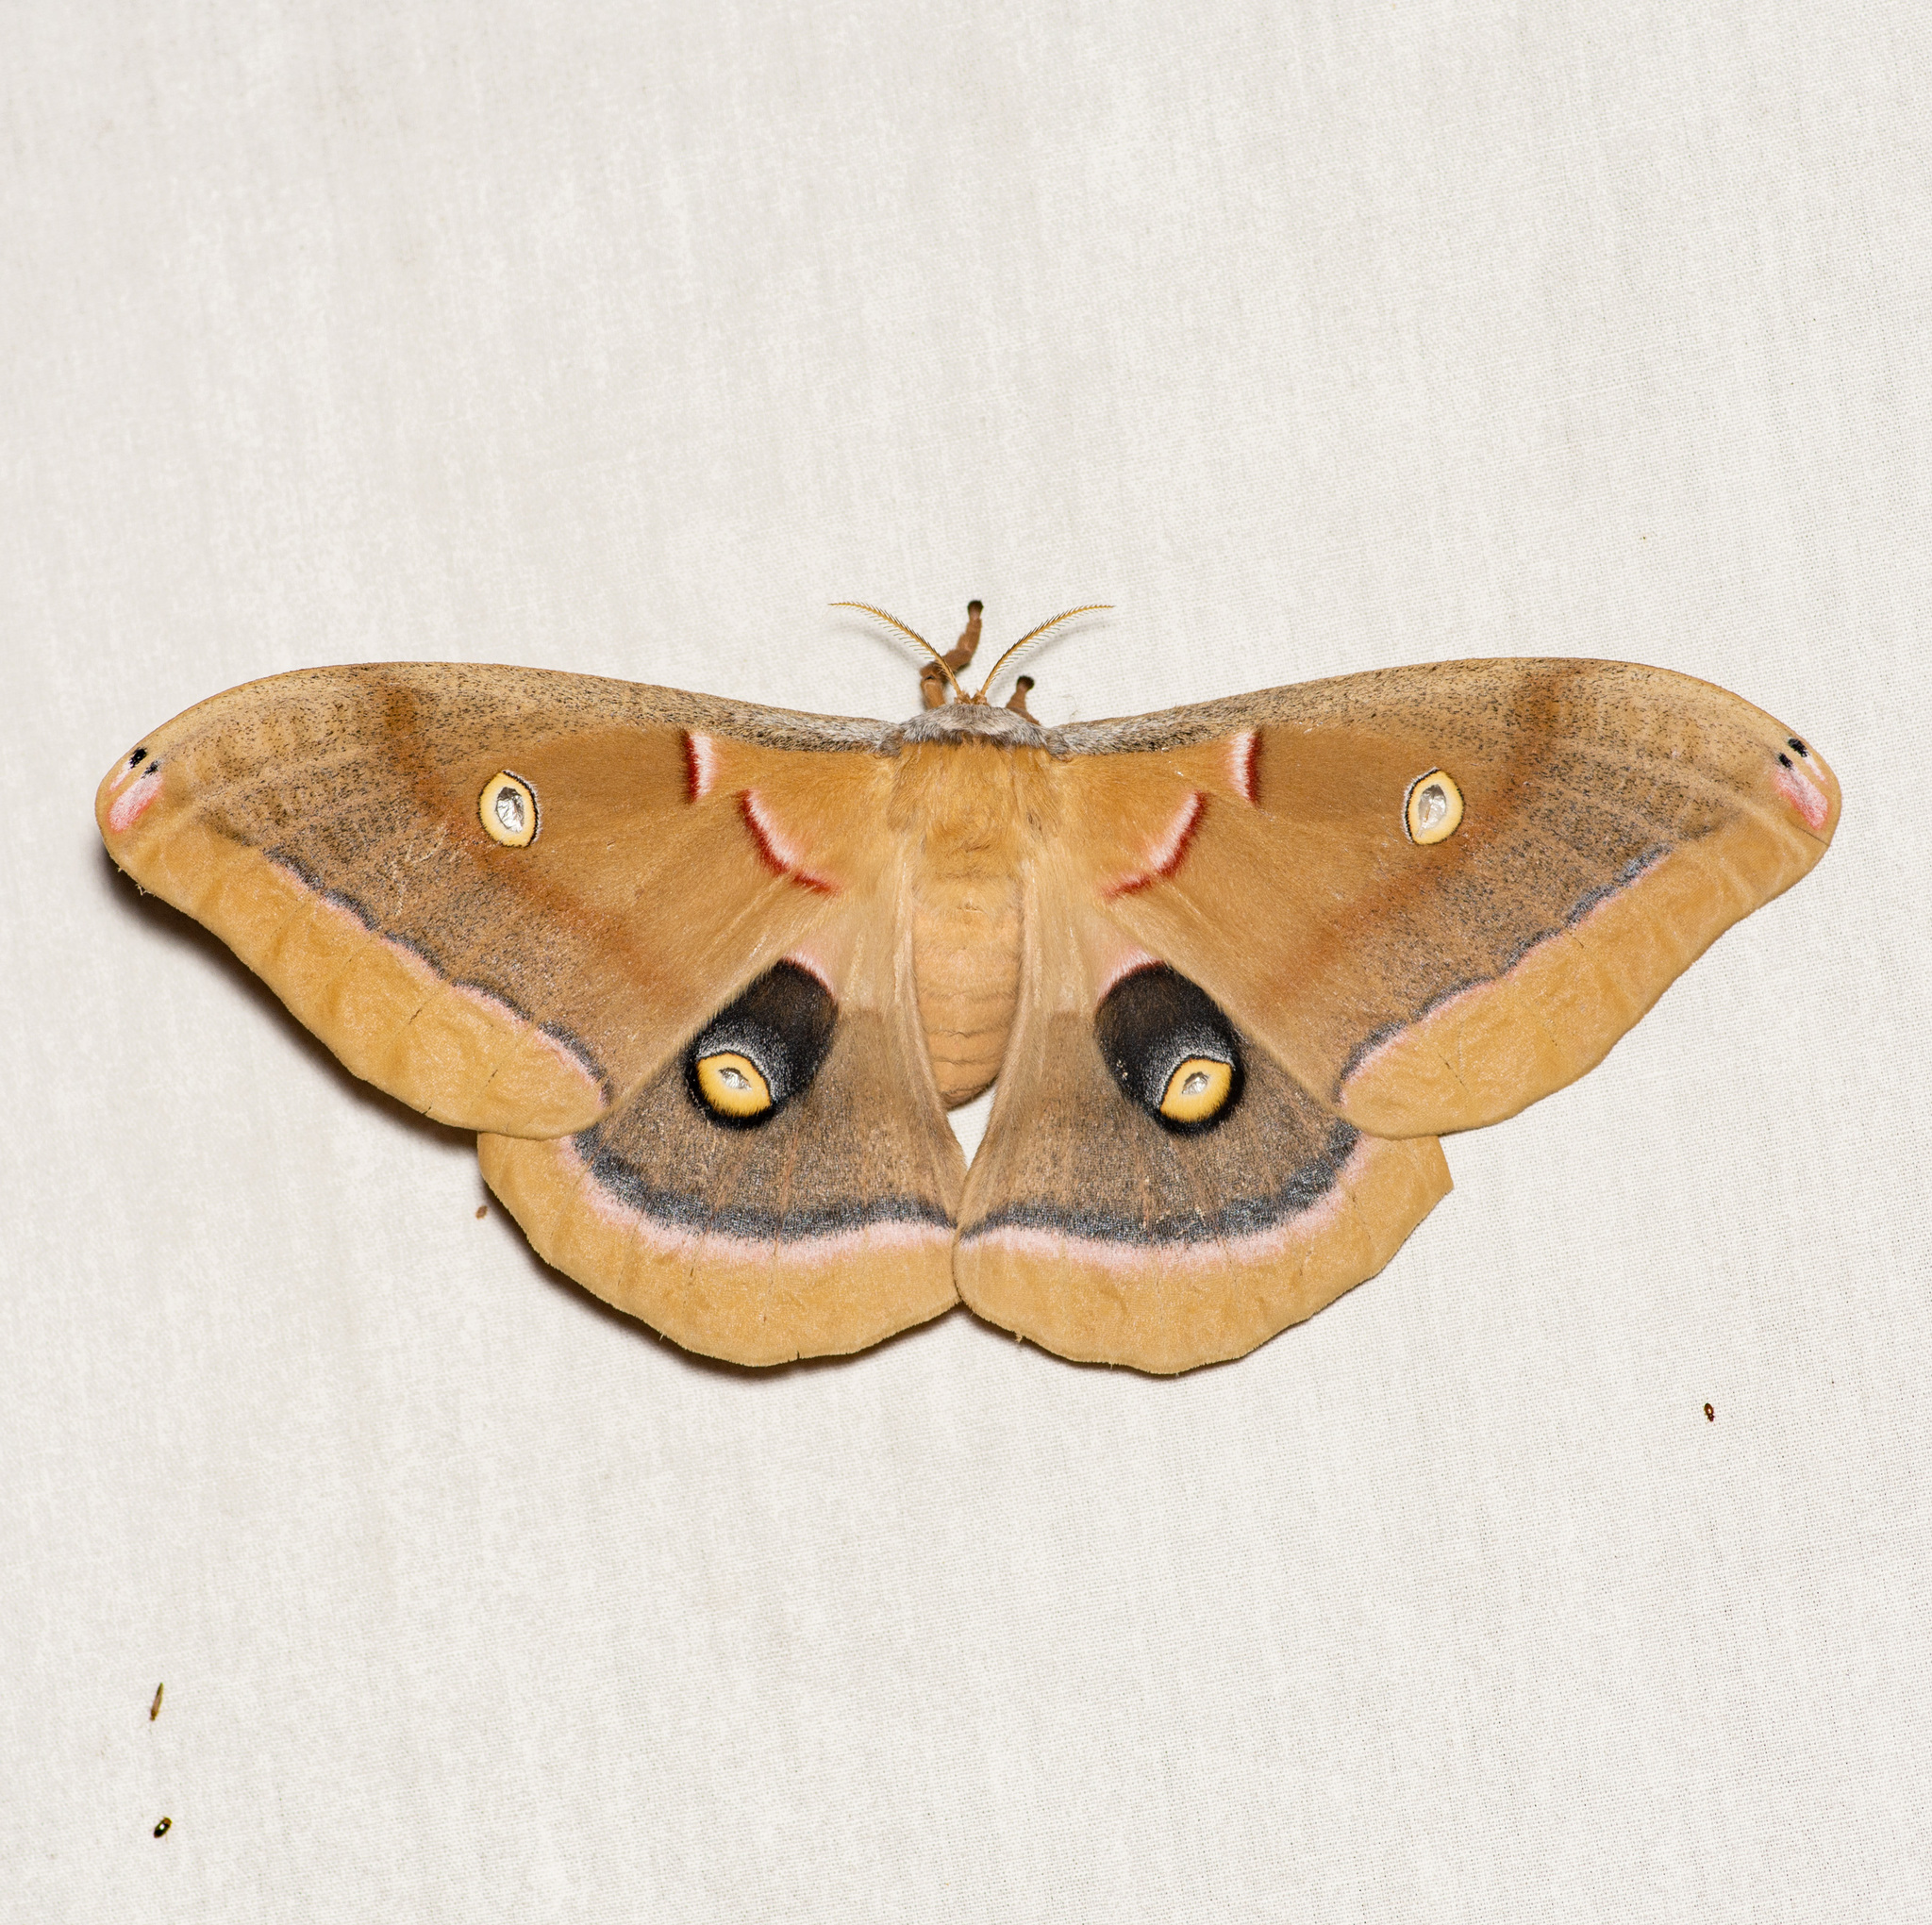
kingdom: Animalia
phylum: Arthropoda
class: Insecta
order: Lepidoptera
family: Saturniidae
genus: Antheraea
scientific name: Antheraea polyphemus
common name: Polyphemus moth
